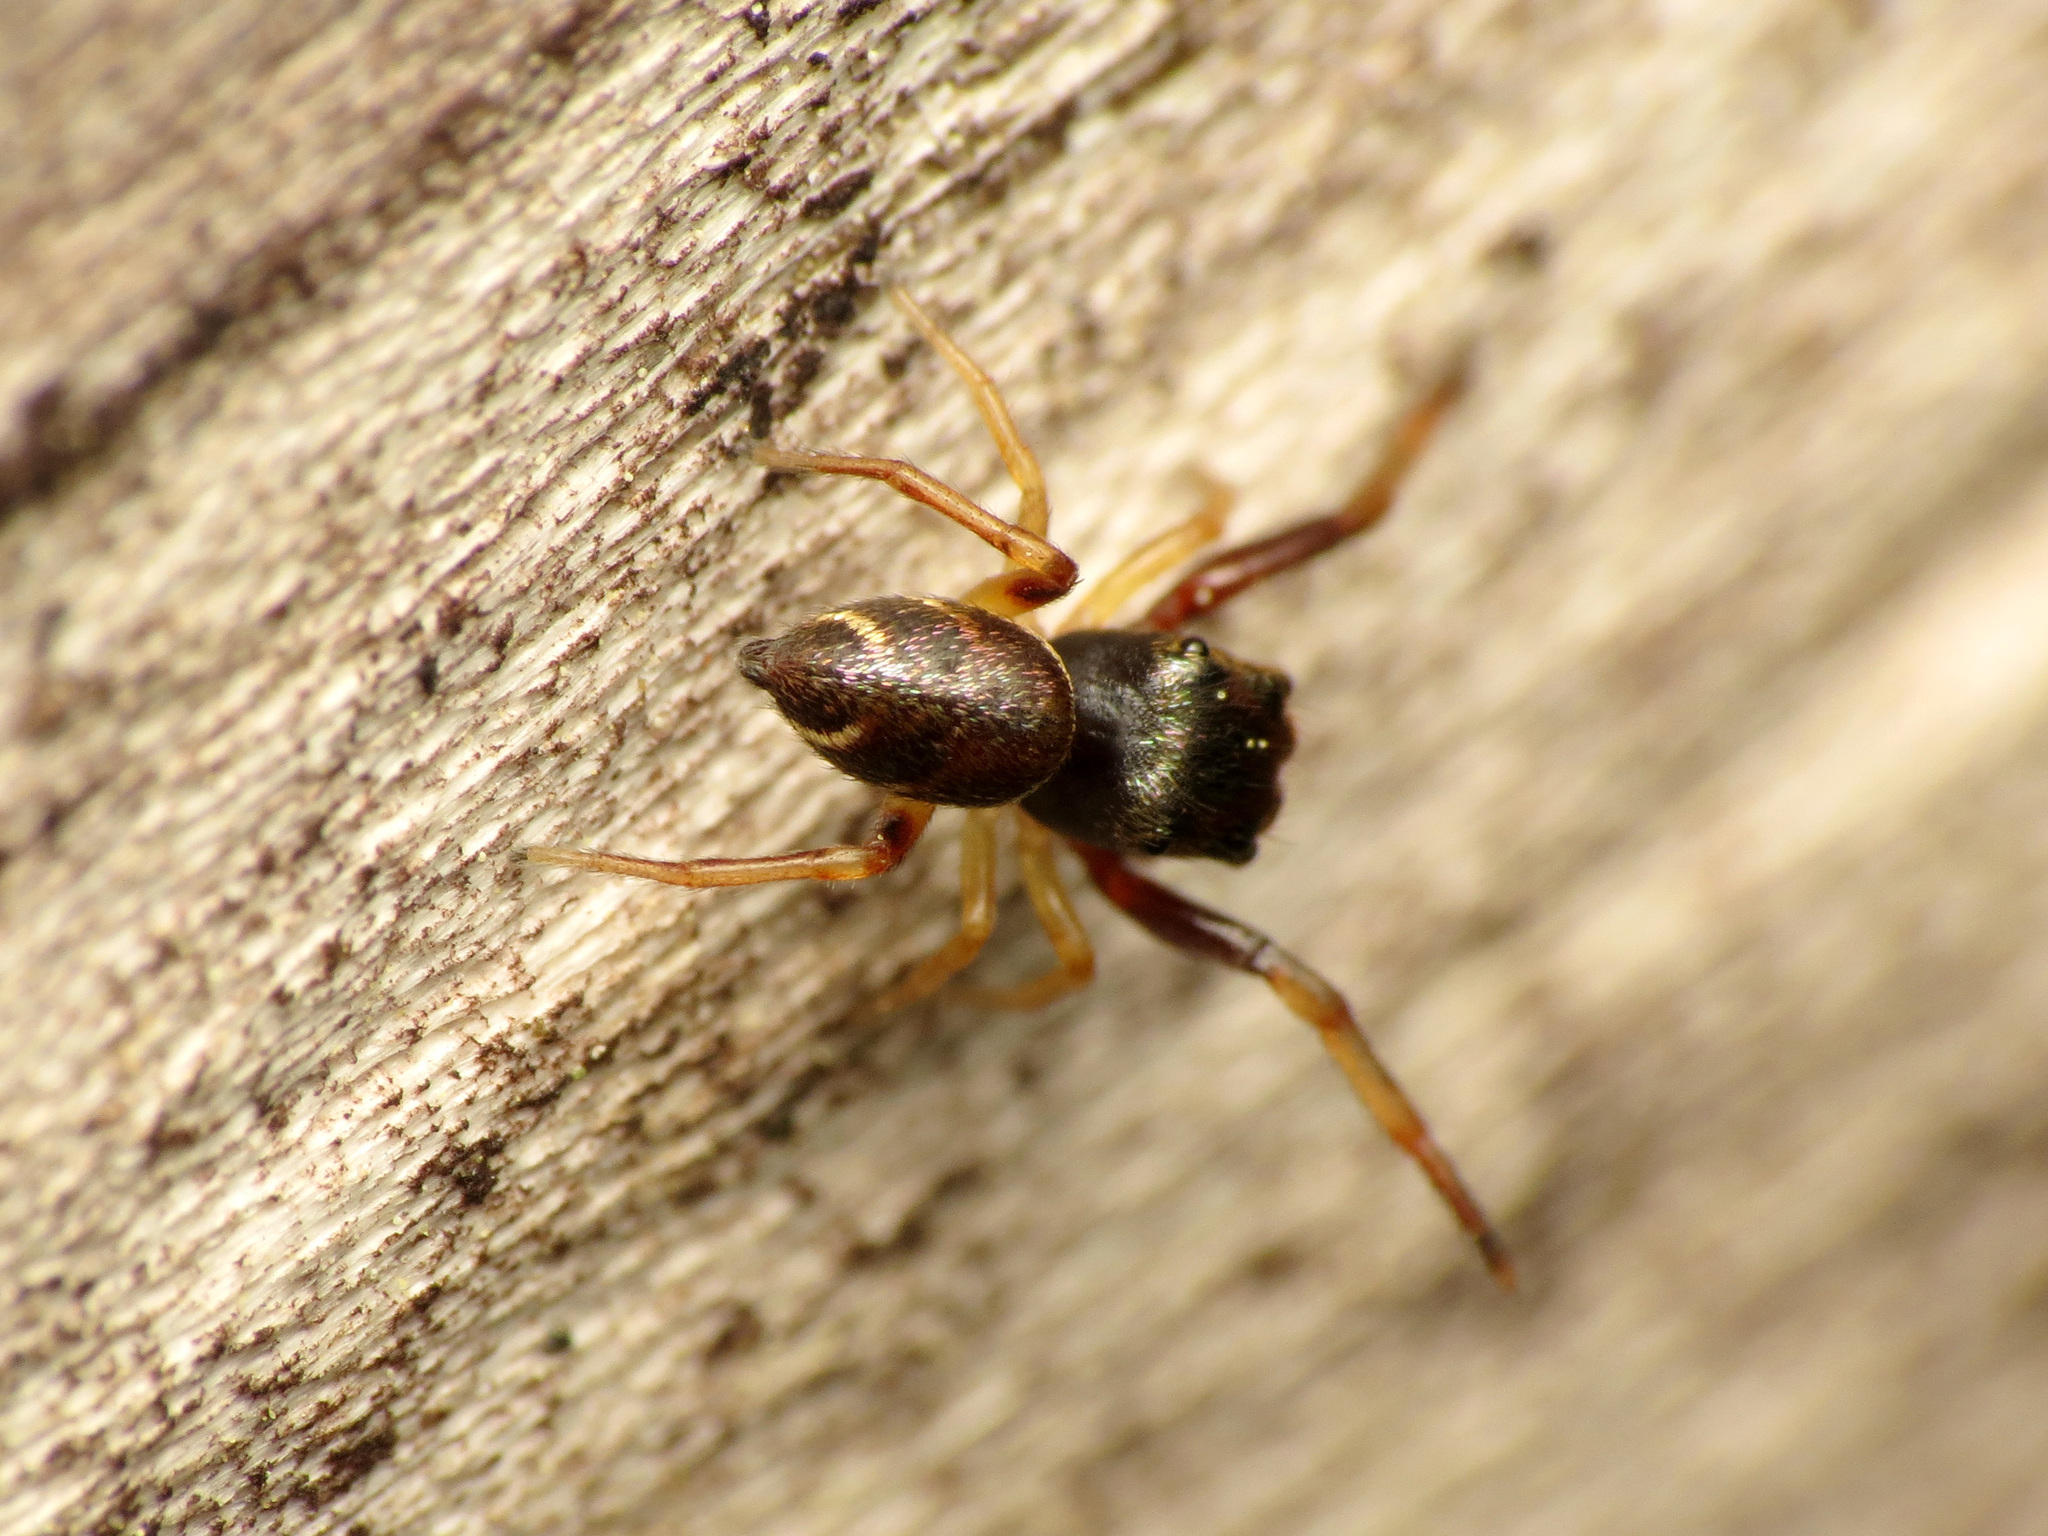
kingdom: Animalia
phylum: Arthropoda
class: Arachnida
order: Araneae
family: Salticidae
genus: Zygoballus
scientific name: Zygoballus rufipes
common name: Jumping spiders
